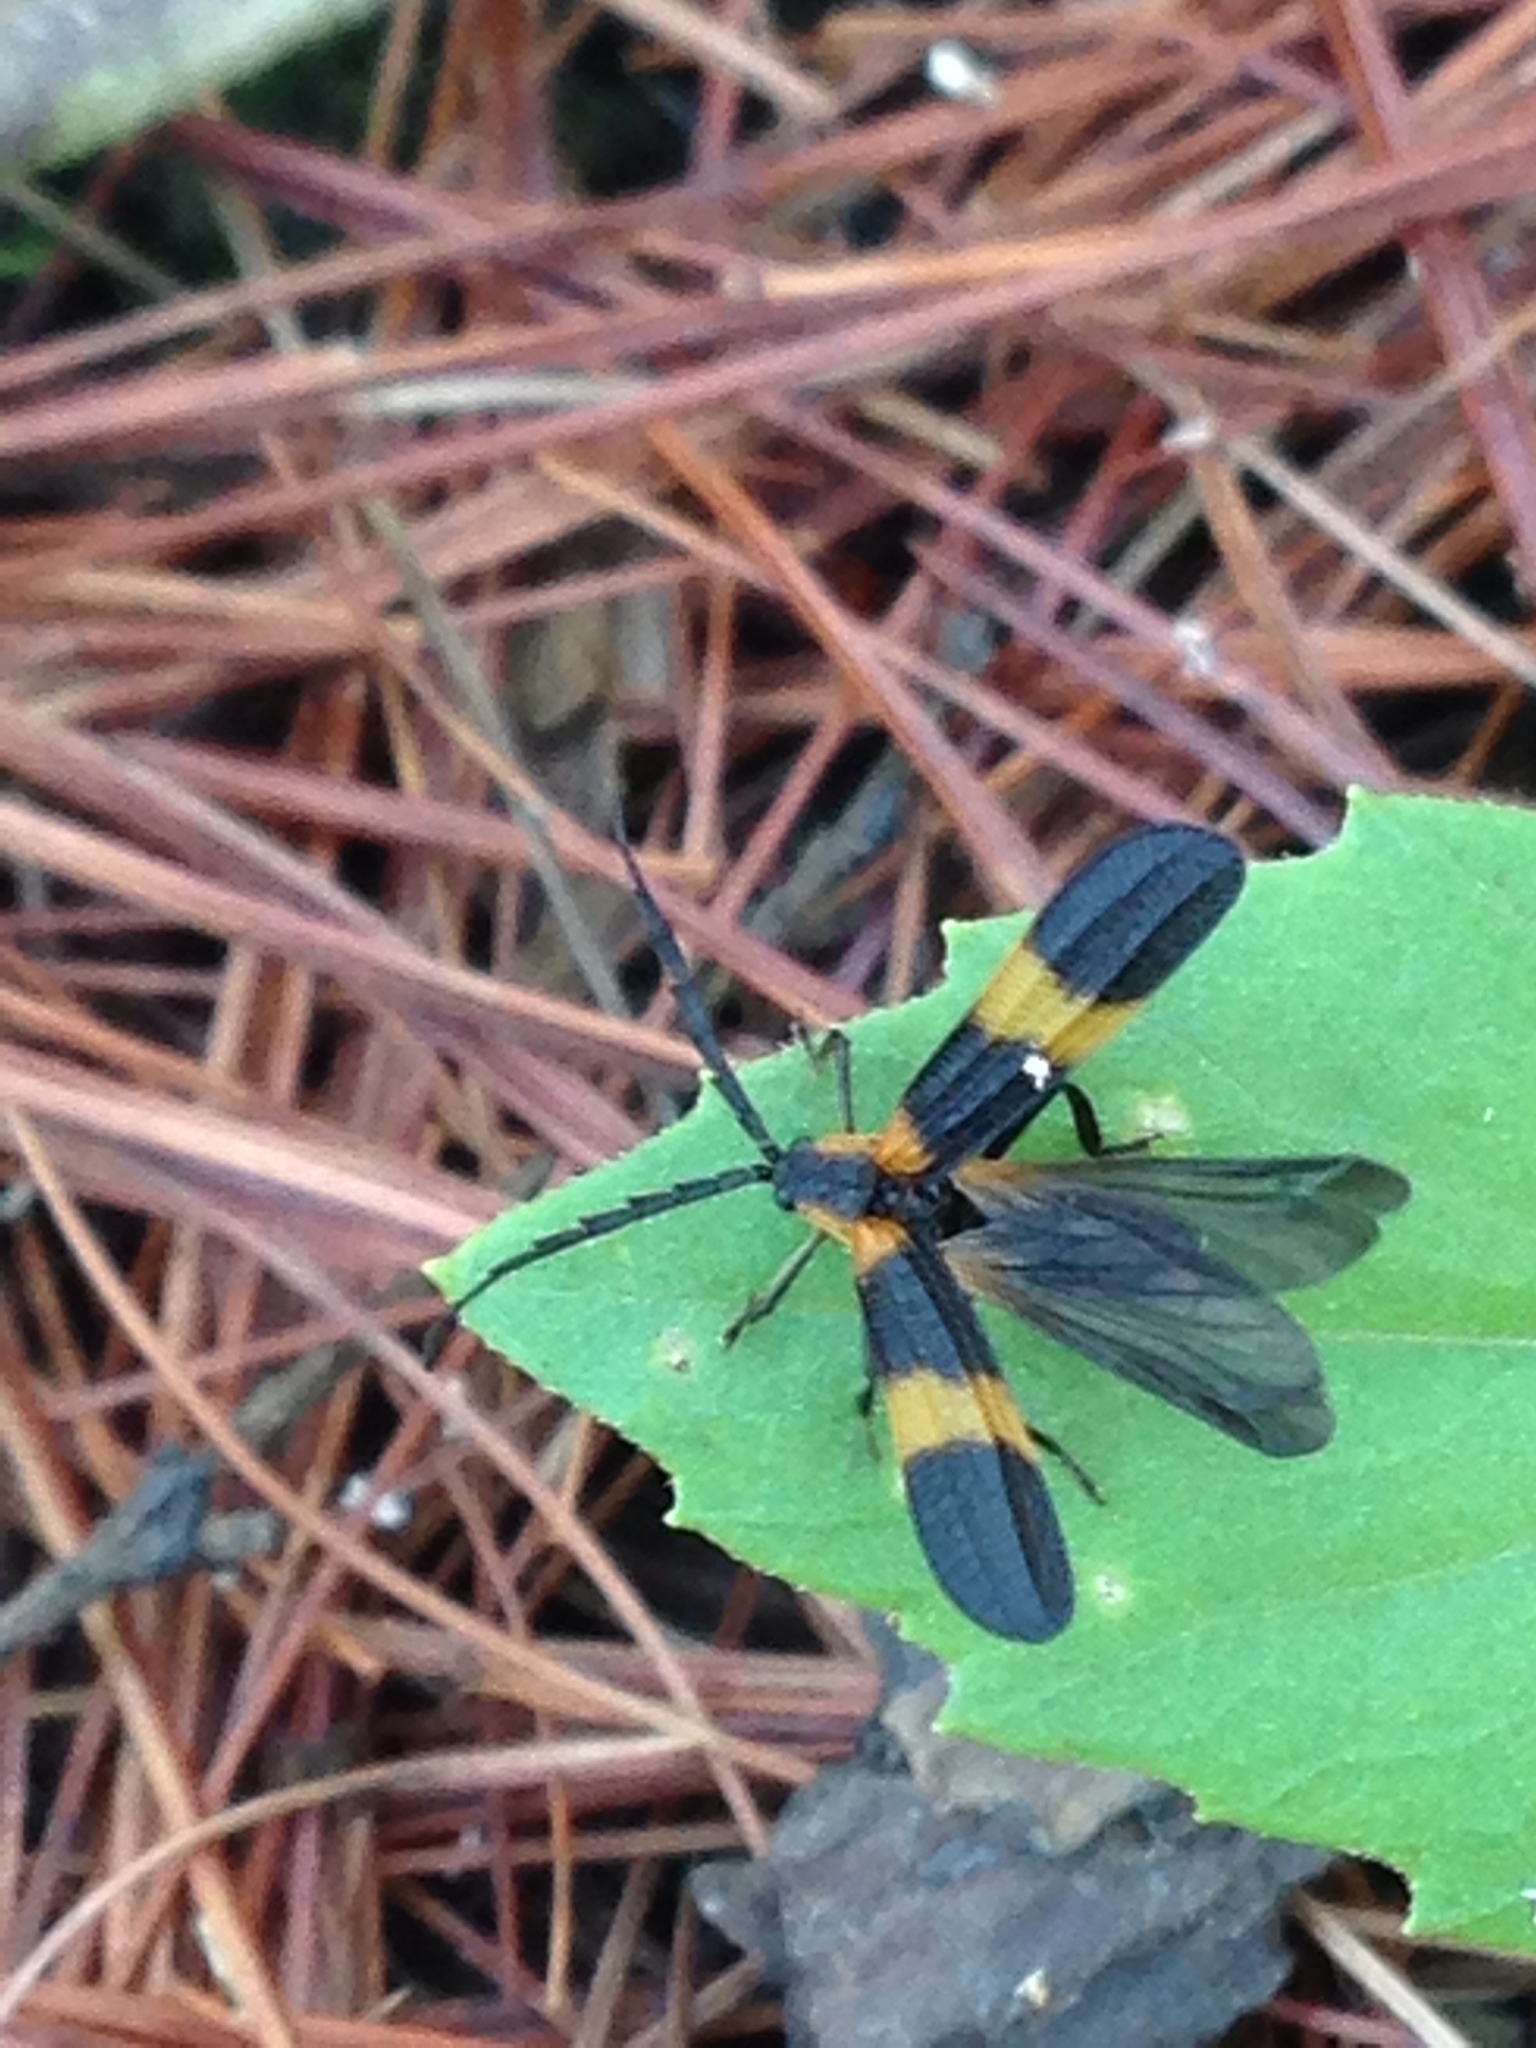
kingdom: Animalia
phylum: Arthropoda
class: Insecta
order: Coleoptera
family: Lycidae
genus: Calopteron
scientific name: Calopteron reticulatum
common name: Banded net-winged beetle
